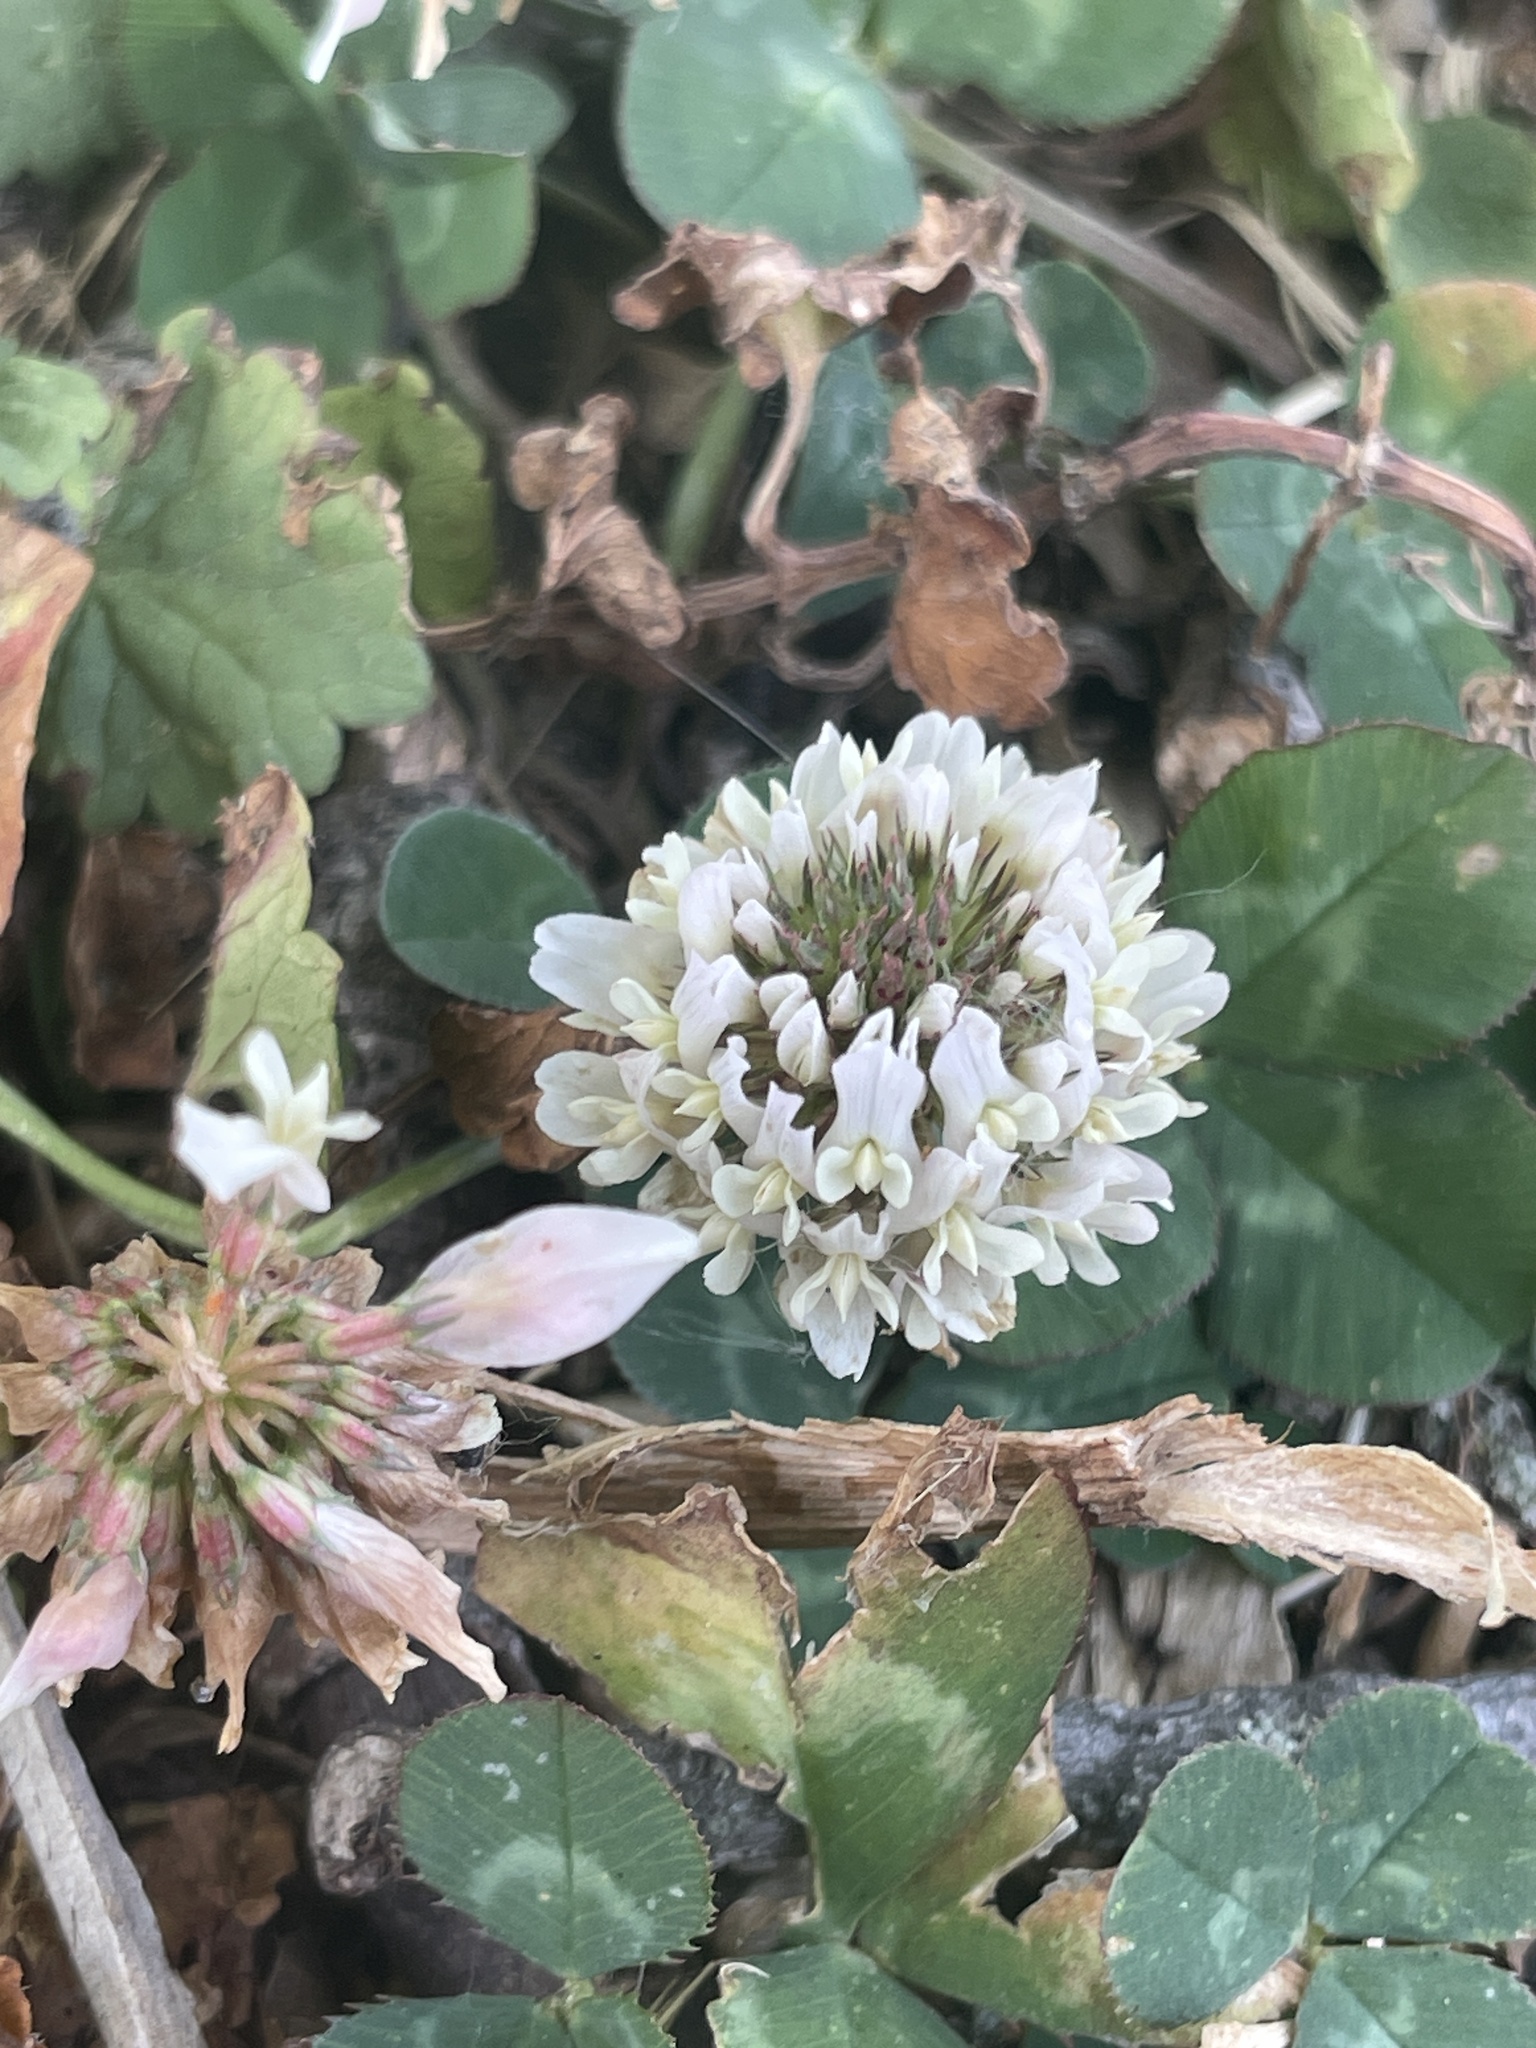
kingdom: Plantae
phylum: Tracheophyta
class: Magnoliopsida
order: Fabales
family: Fabaceae
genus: Trifolium
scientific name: Trifolium repens
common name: White clover
